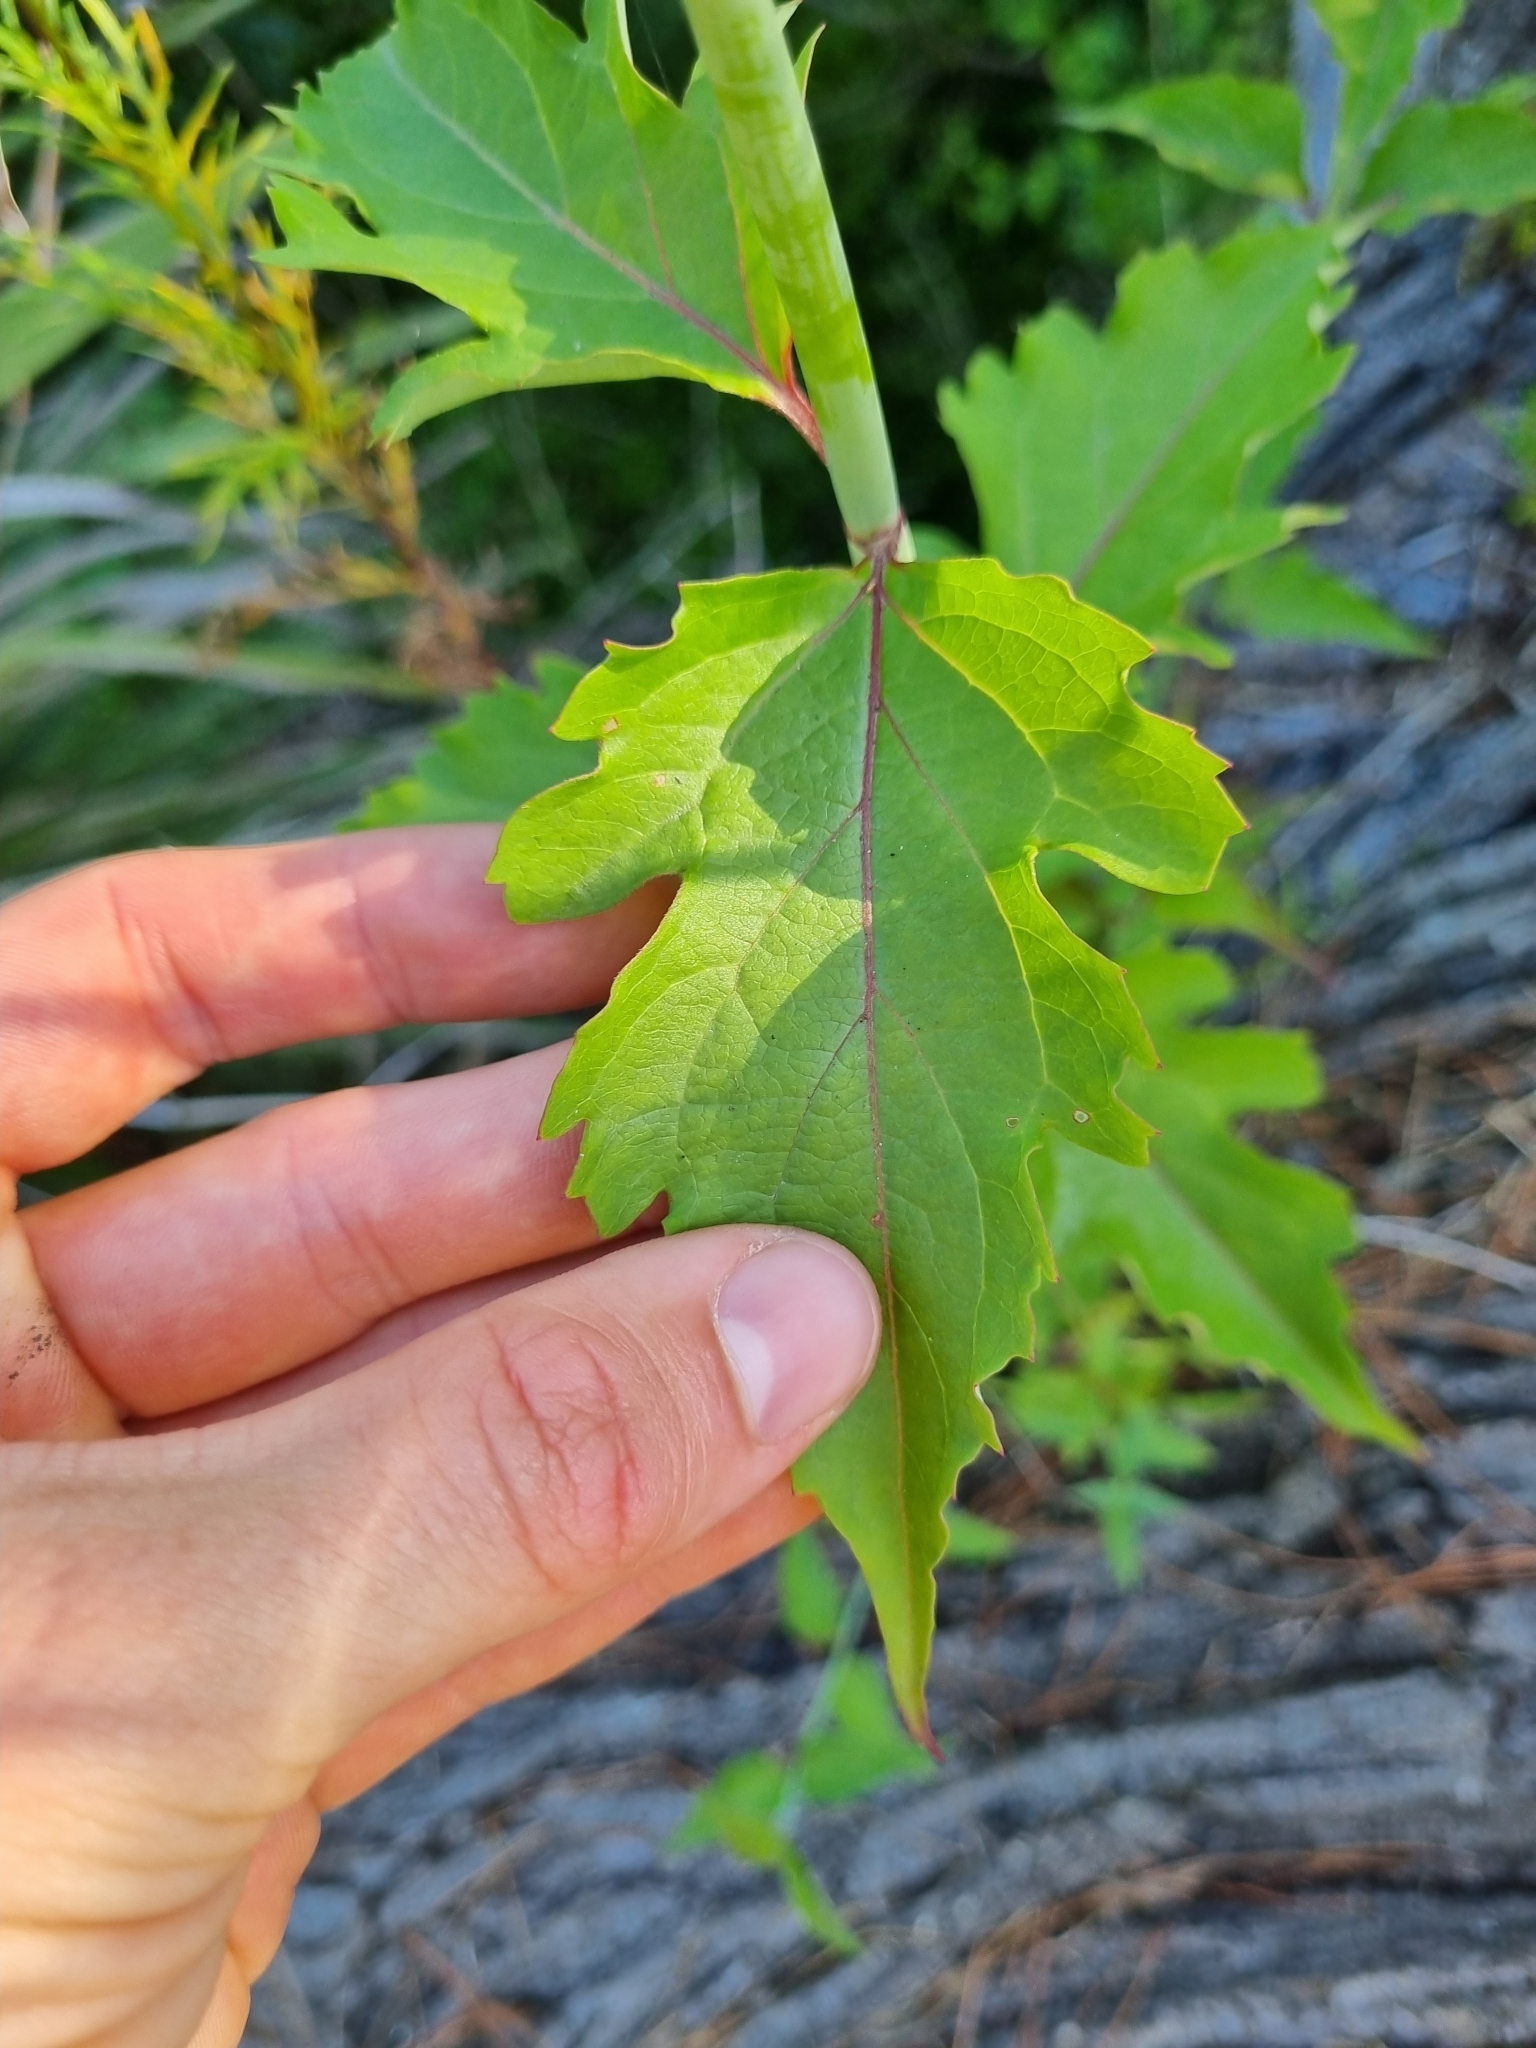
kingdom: Plantae
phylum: Tracheophyta
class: Magnoliopsida
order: Dipsacales
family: Caprifoliaceae
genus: Leycesteria
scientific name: Leycesteria formosa
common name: Himalayan honeysuckle
